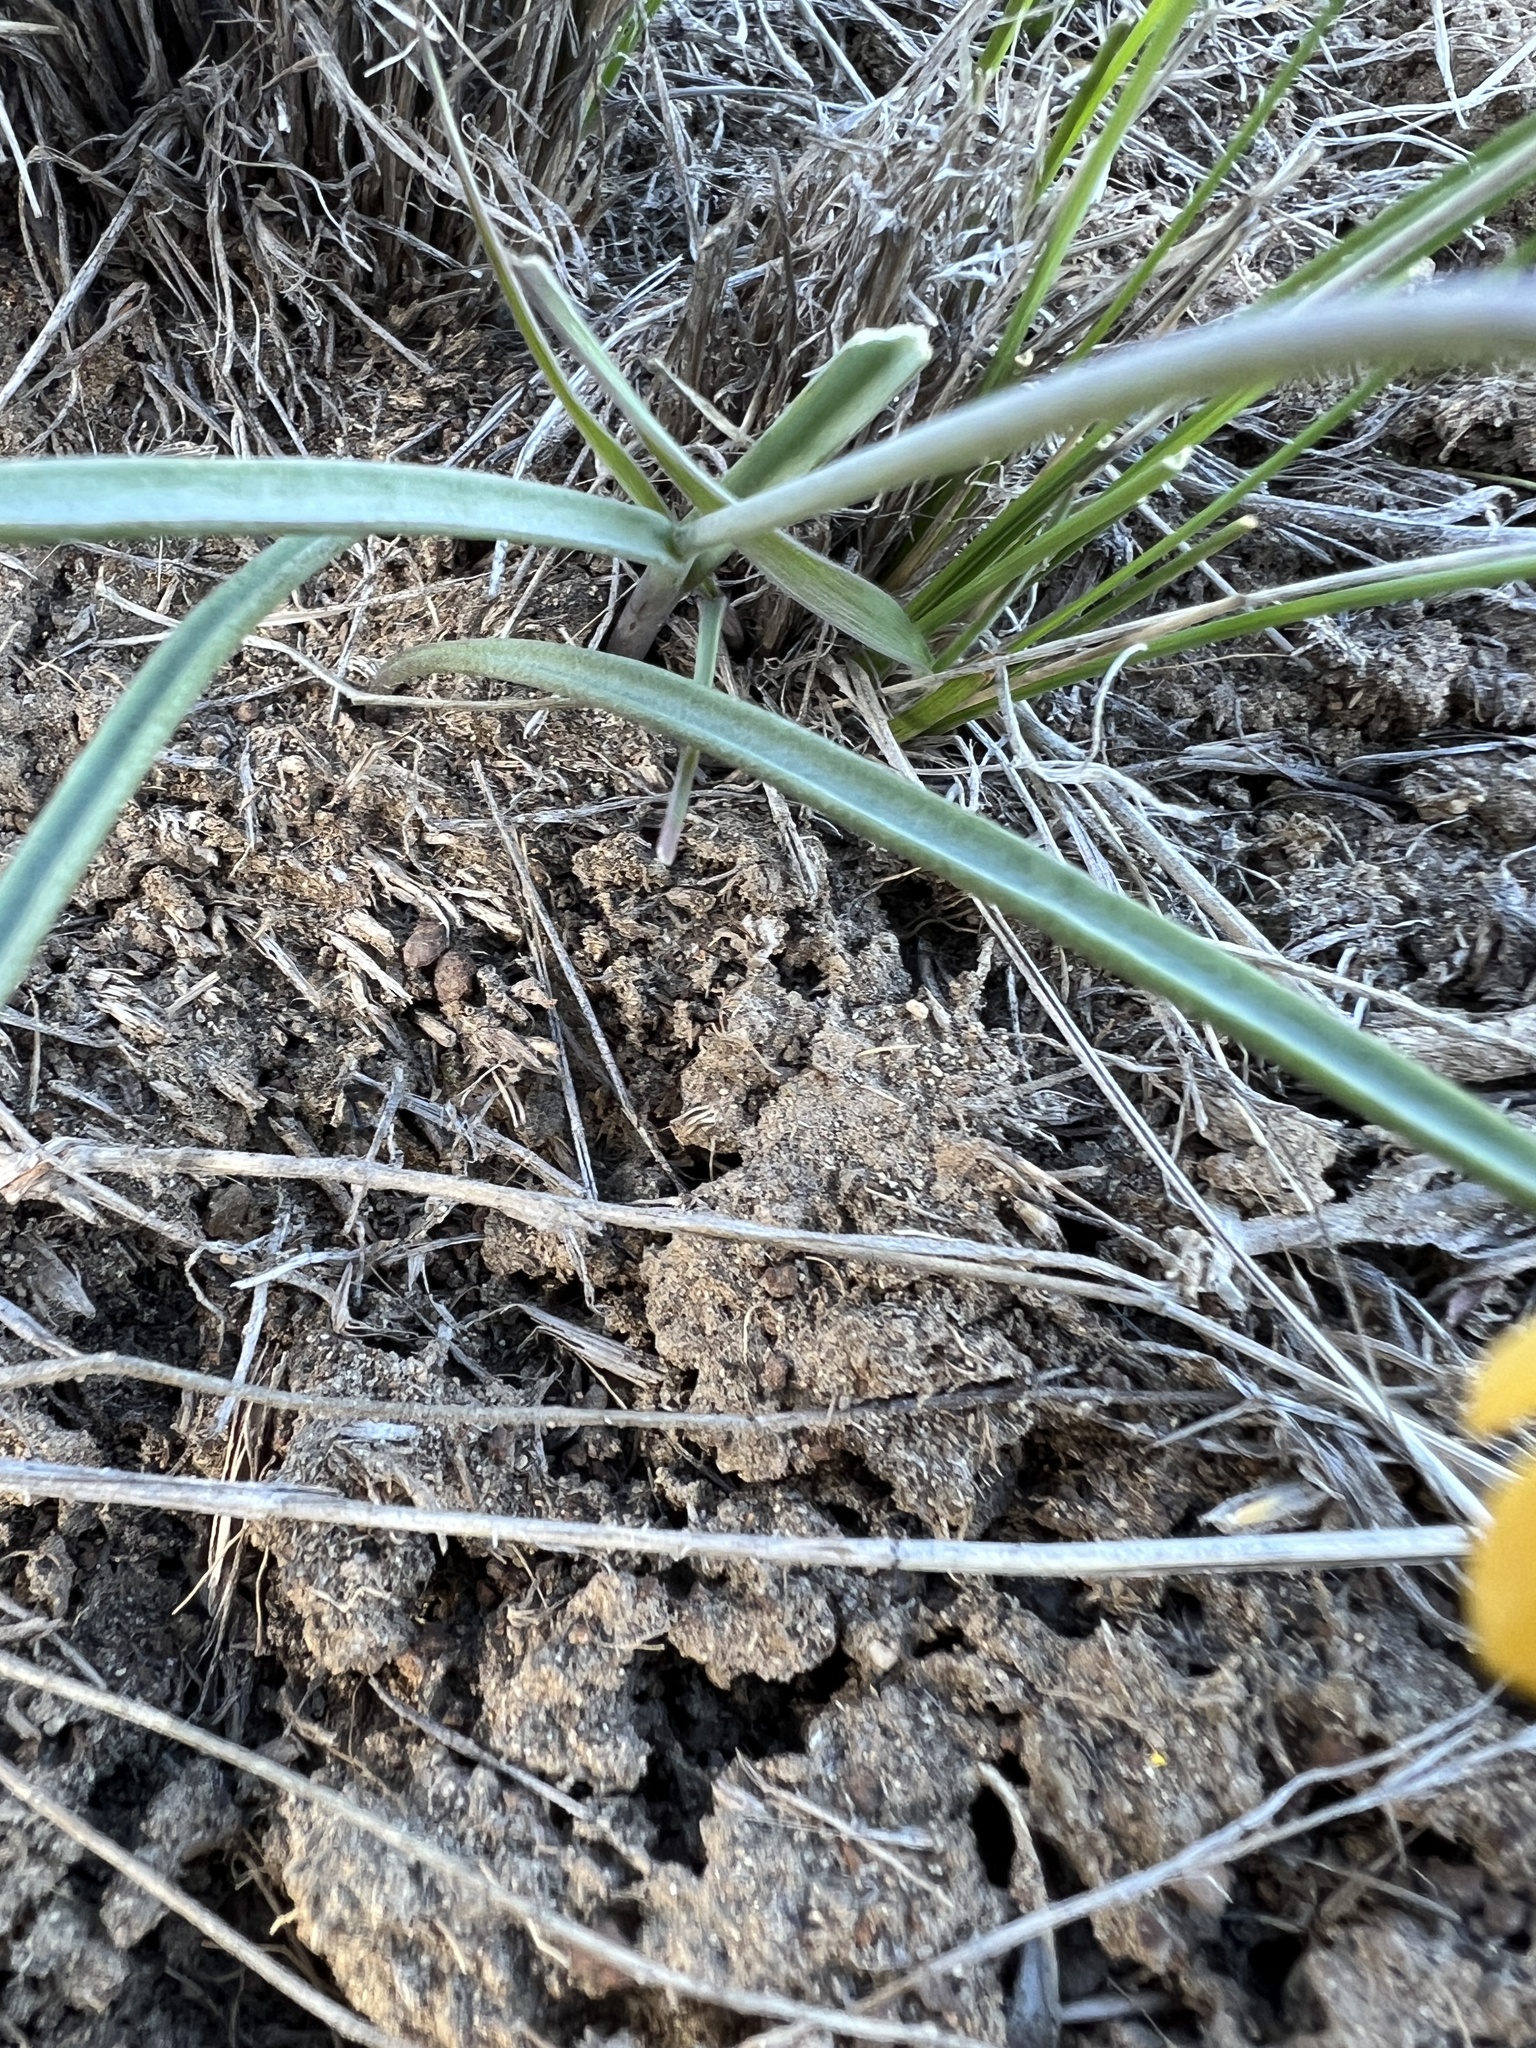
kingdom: Plantae
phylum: Tracheophyta
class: Liliopsida
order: Liliales
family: Liliaceae
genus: Fritillaria
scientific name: Fritillaria pudica
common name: Yellow fritillary
